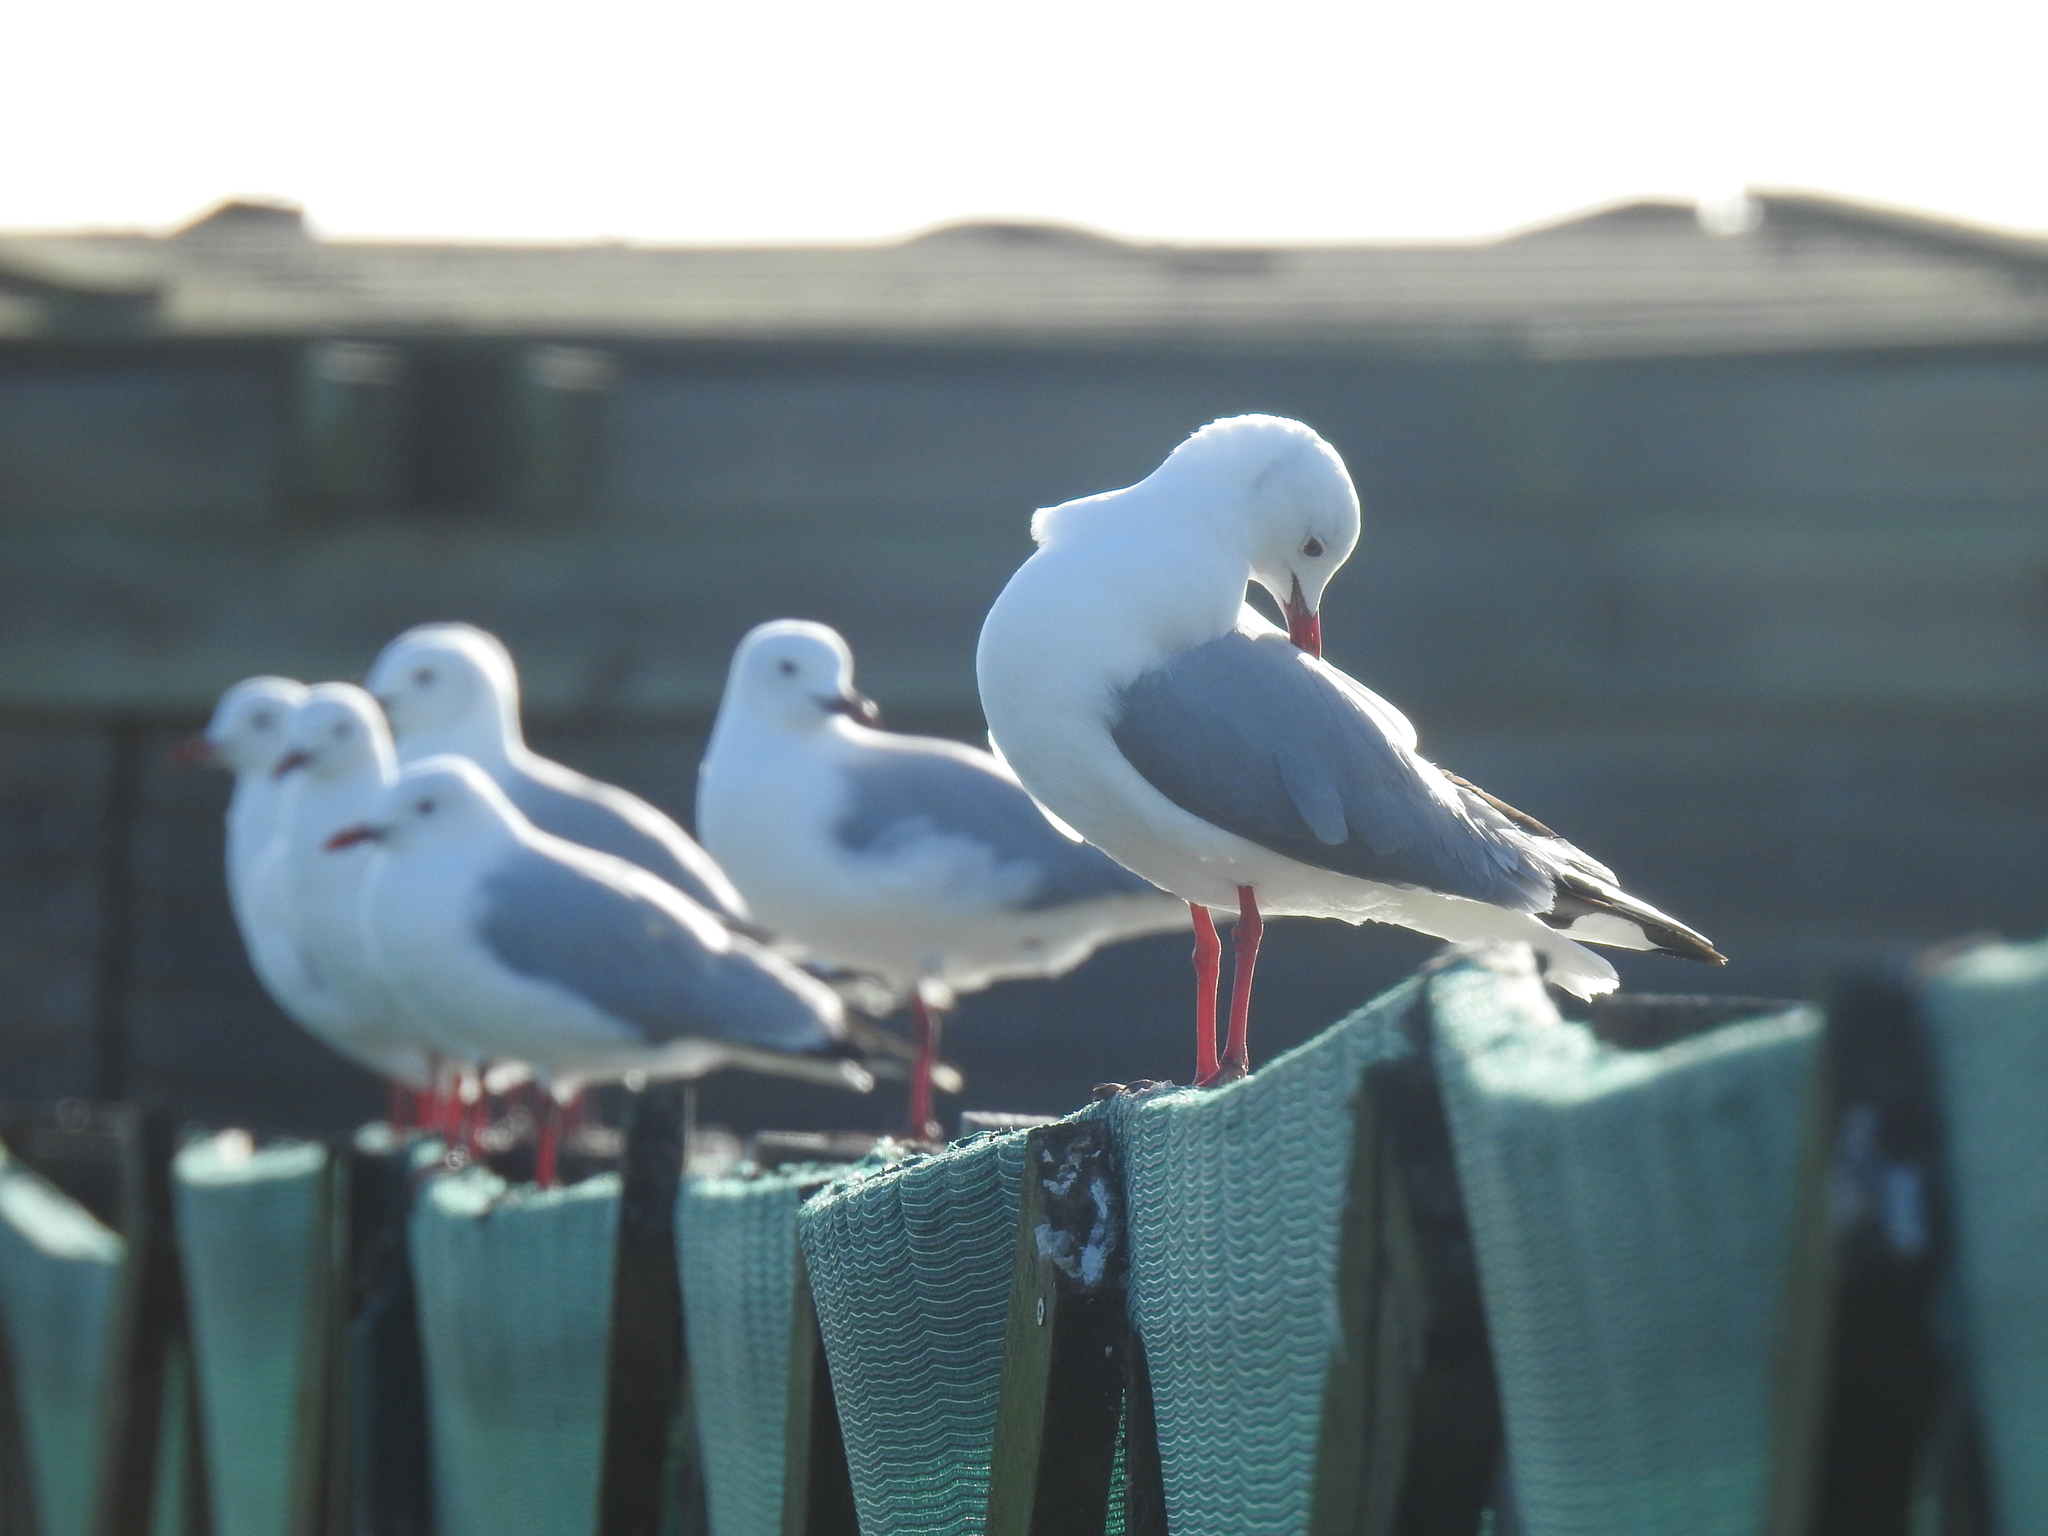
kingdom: Animalia
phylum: Chordata
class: Aves
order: Charadriiformes
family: Laridae
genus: Chroicocephalus
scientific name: Chroicocephalus hartlaubii
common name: Hartlaub's gull
